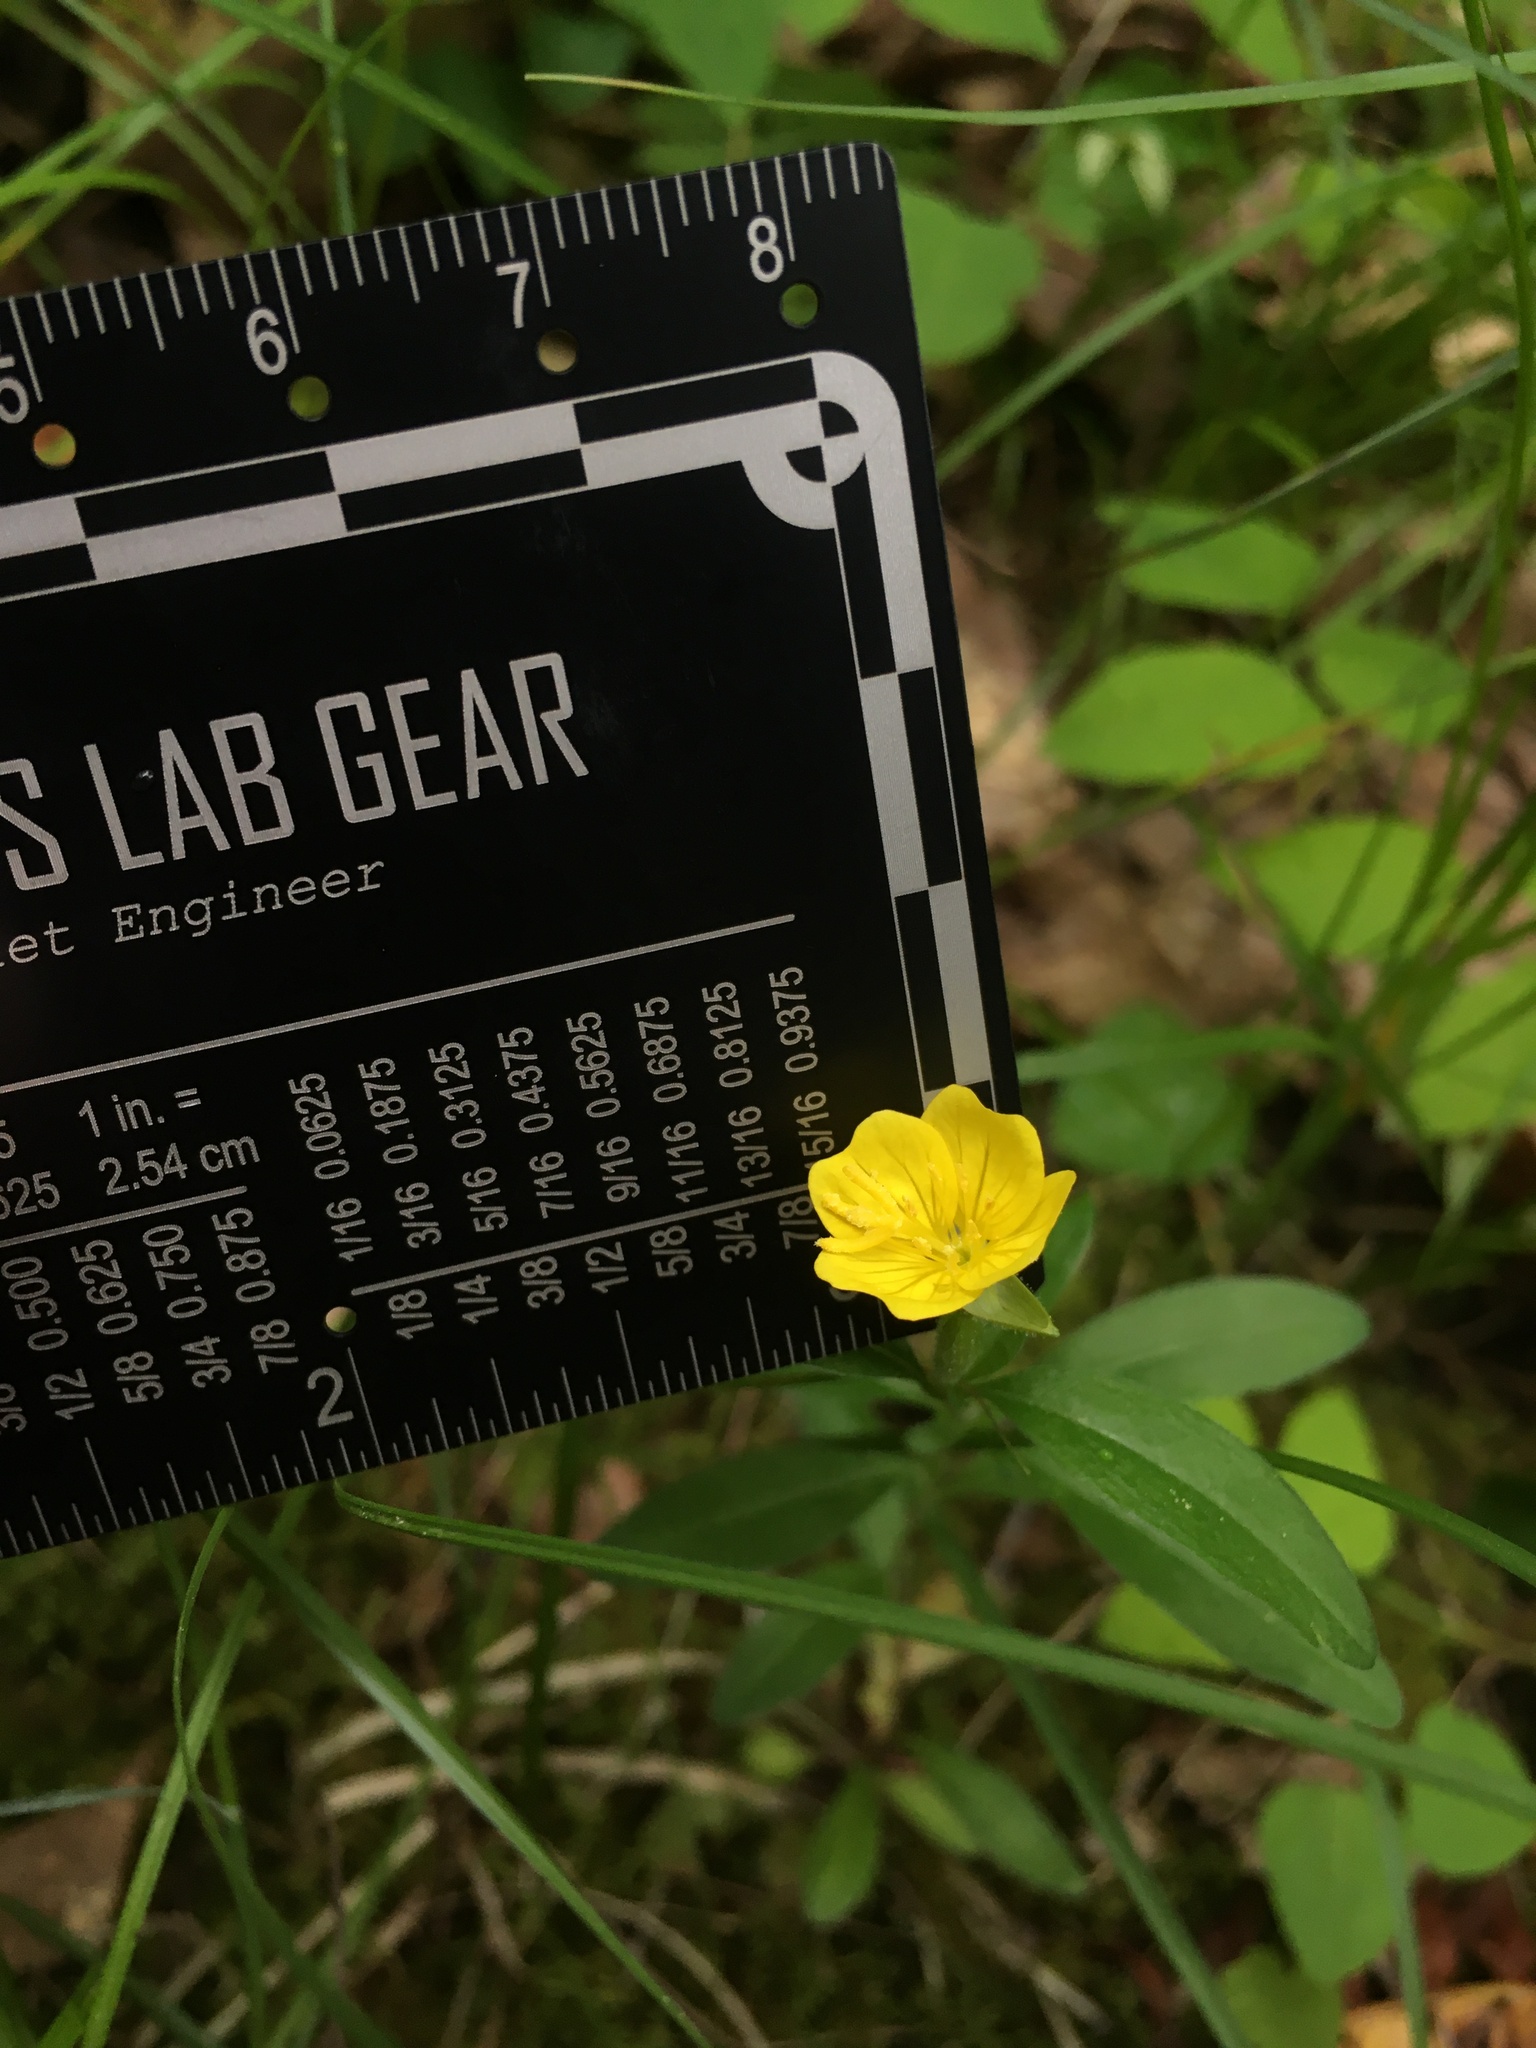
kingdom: Plantae
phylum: Tracheophyta
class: Magnoliopsida
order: Myrtales
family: Onagraceae
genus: Oenothera
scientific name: Oenothera perennis
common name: Small sundrops
